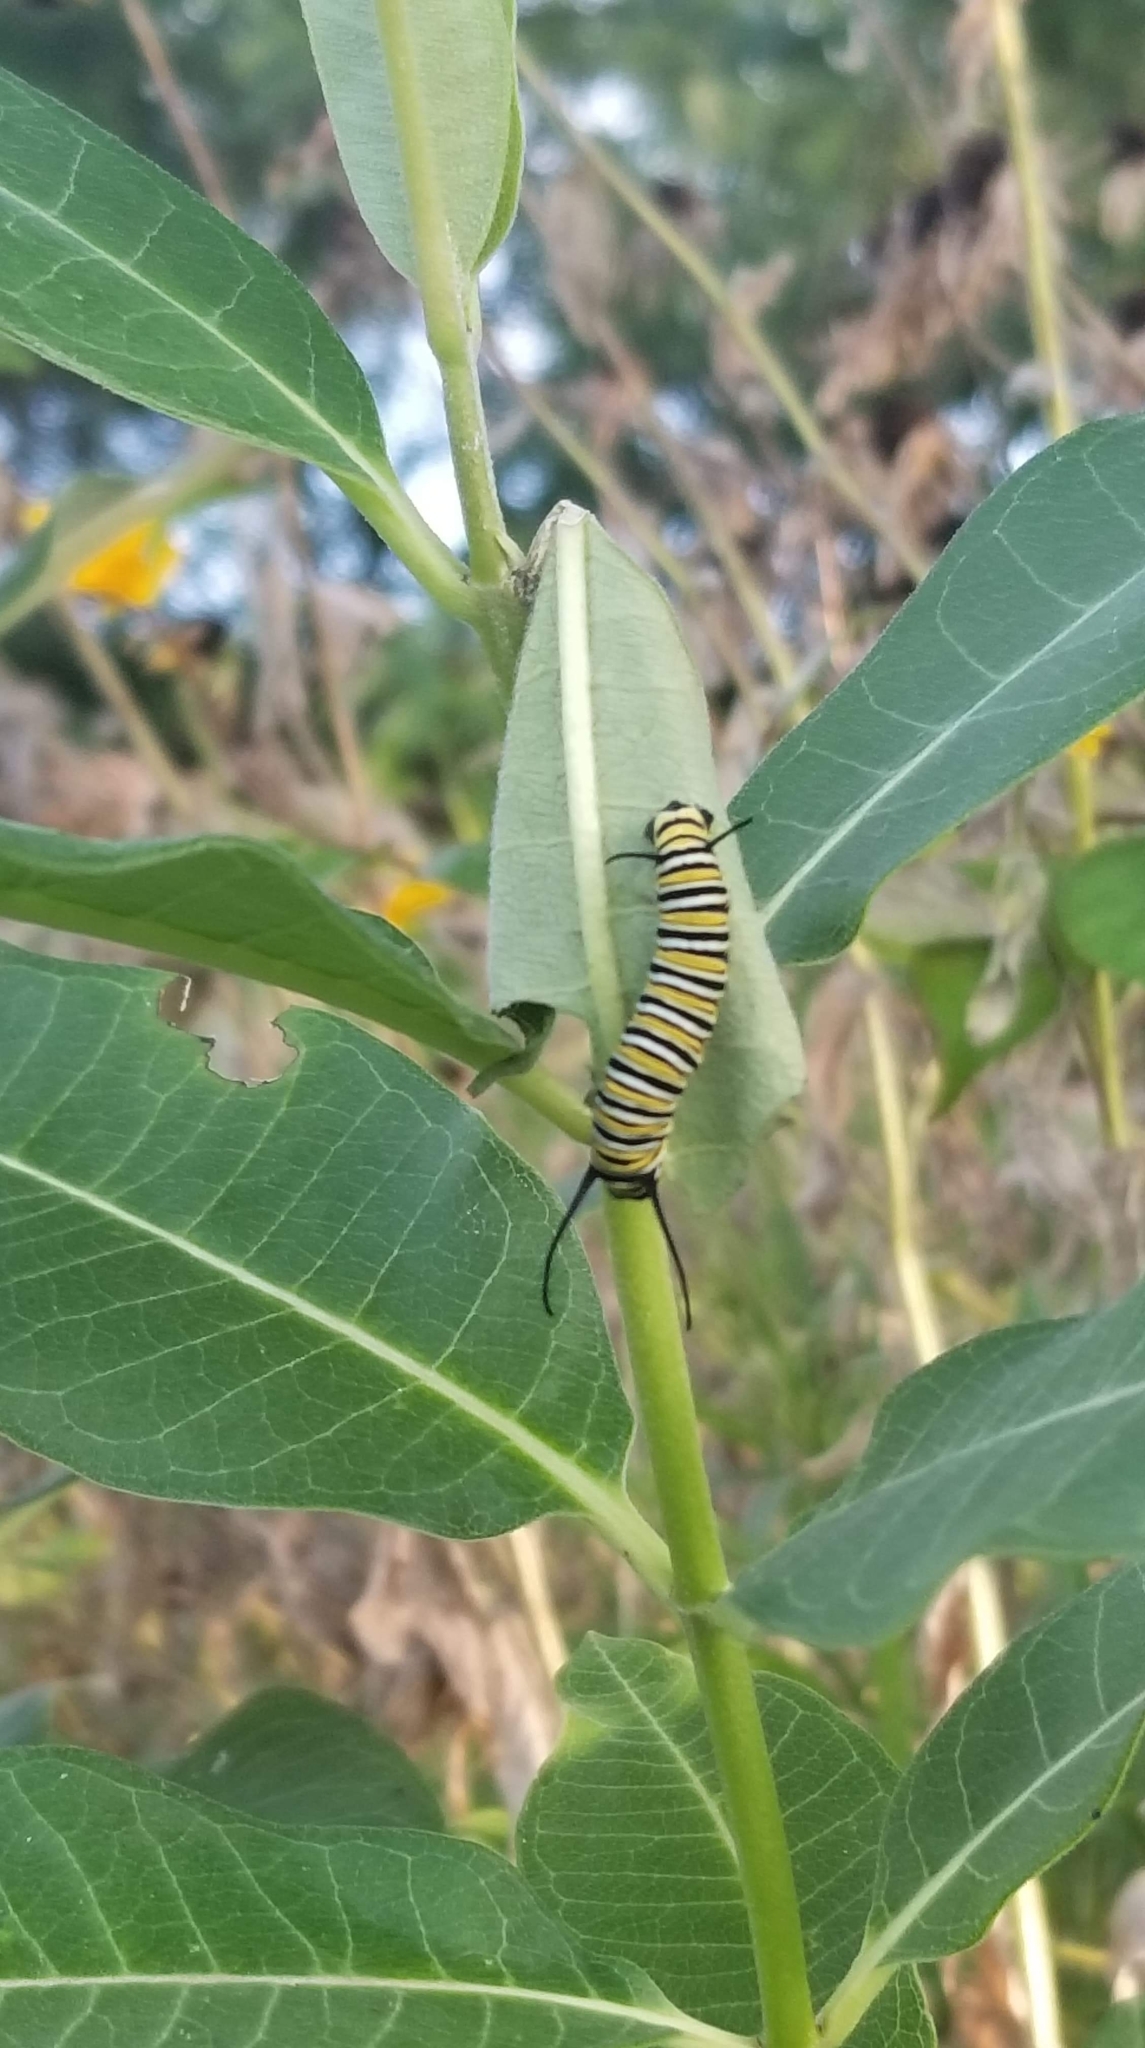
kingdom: Animalia
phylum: Arthropoda
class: Insecta
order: Lepidoptera
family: Nymphalidae
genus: Danaus
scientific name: Danaus plexippus
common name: Monarch
